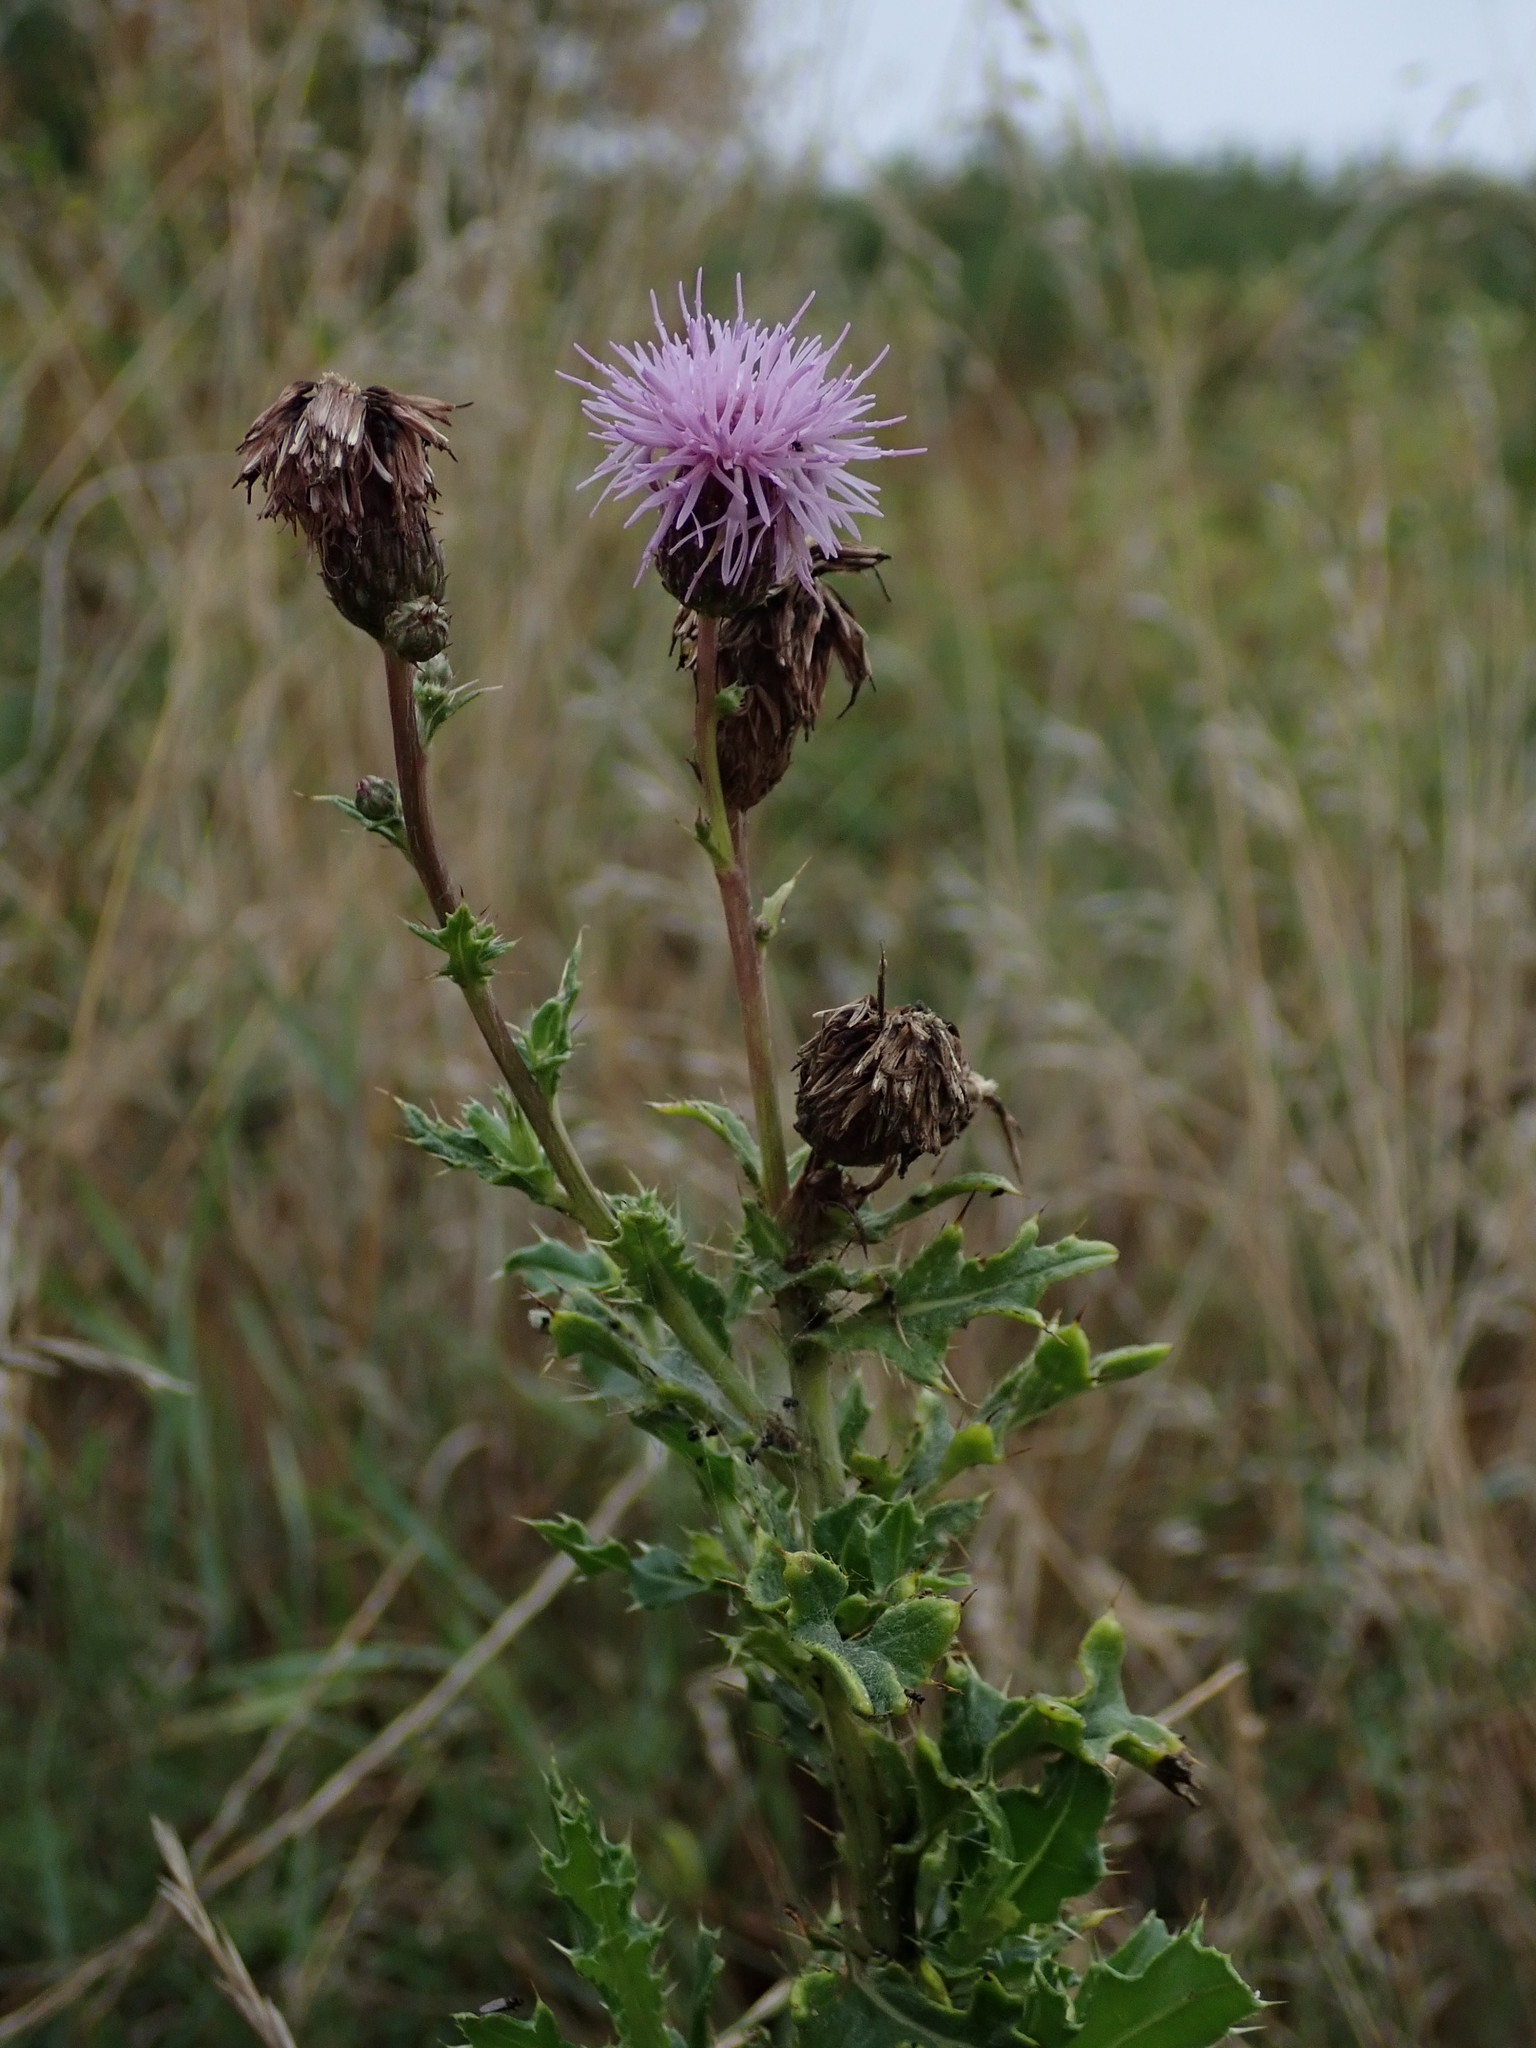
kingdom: Plantae
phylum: Tracheophyta
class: Magnoliopsida
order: Asterales
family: Asteraceae
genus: Cirsium
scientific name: Cirsium arvense
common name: Creeping thistle
